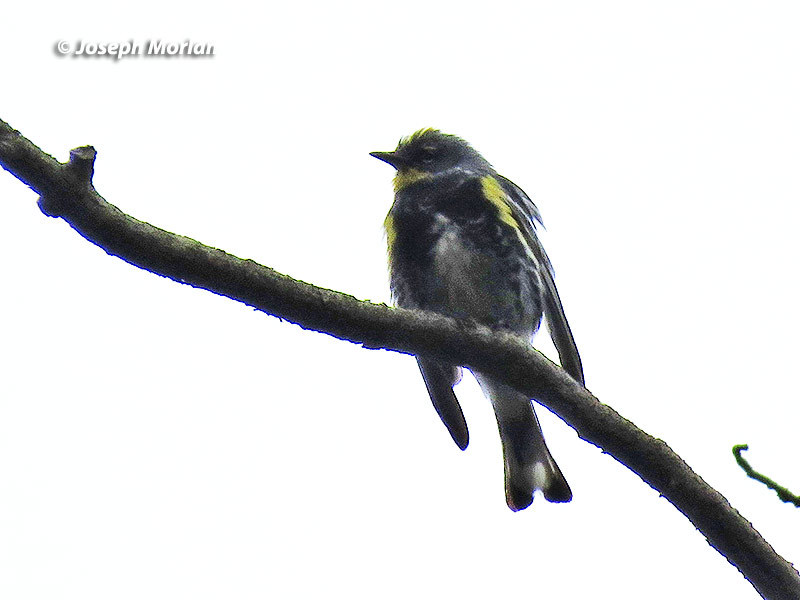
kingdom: Animalia
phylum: Chordata
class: Aves
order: Passeriformes
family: Parulidae
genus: Setophaga
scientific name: Setophaga coronata
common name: Myrtle warbler
